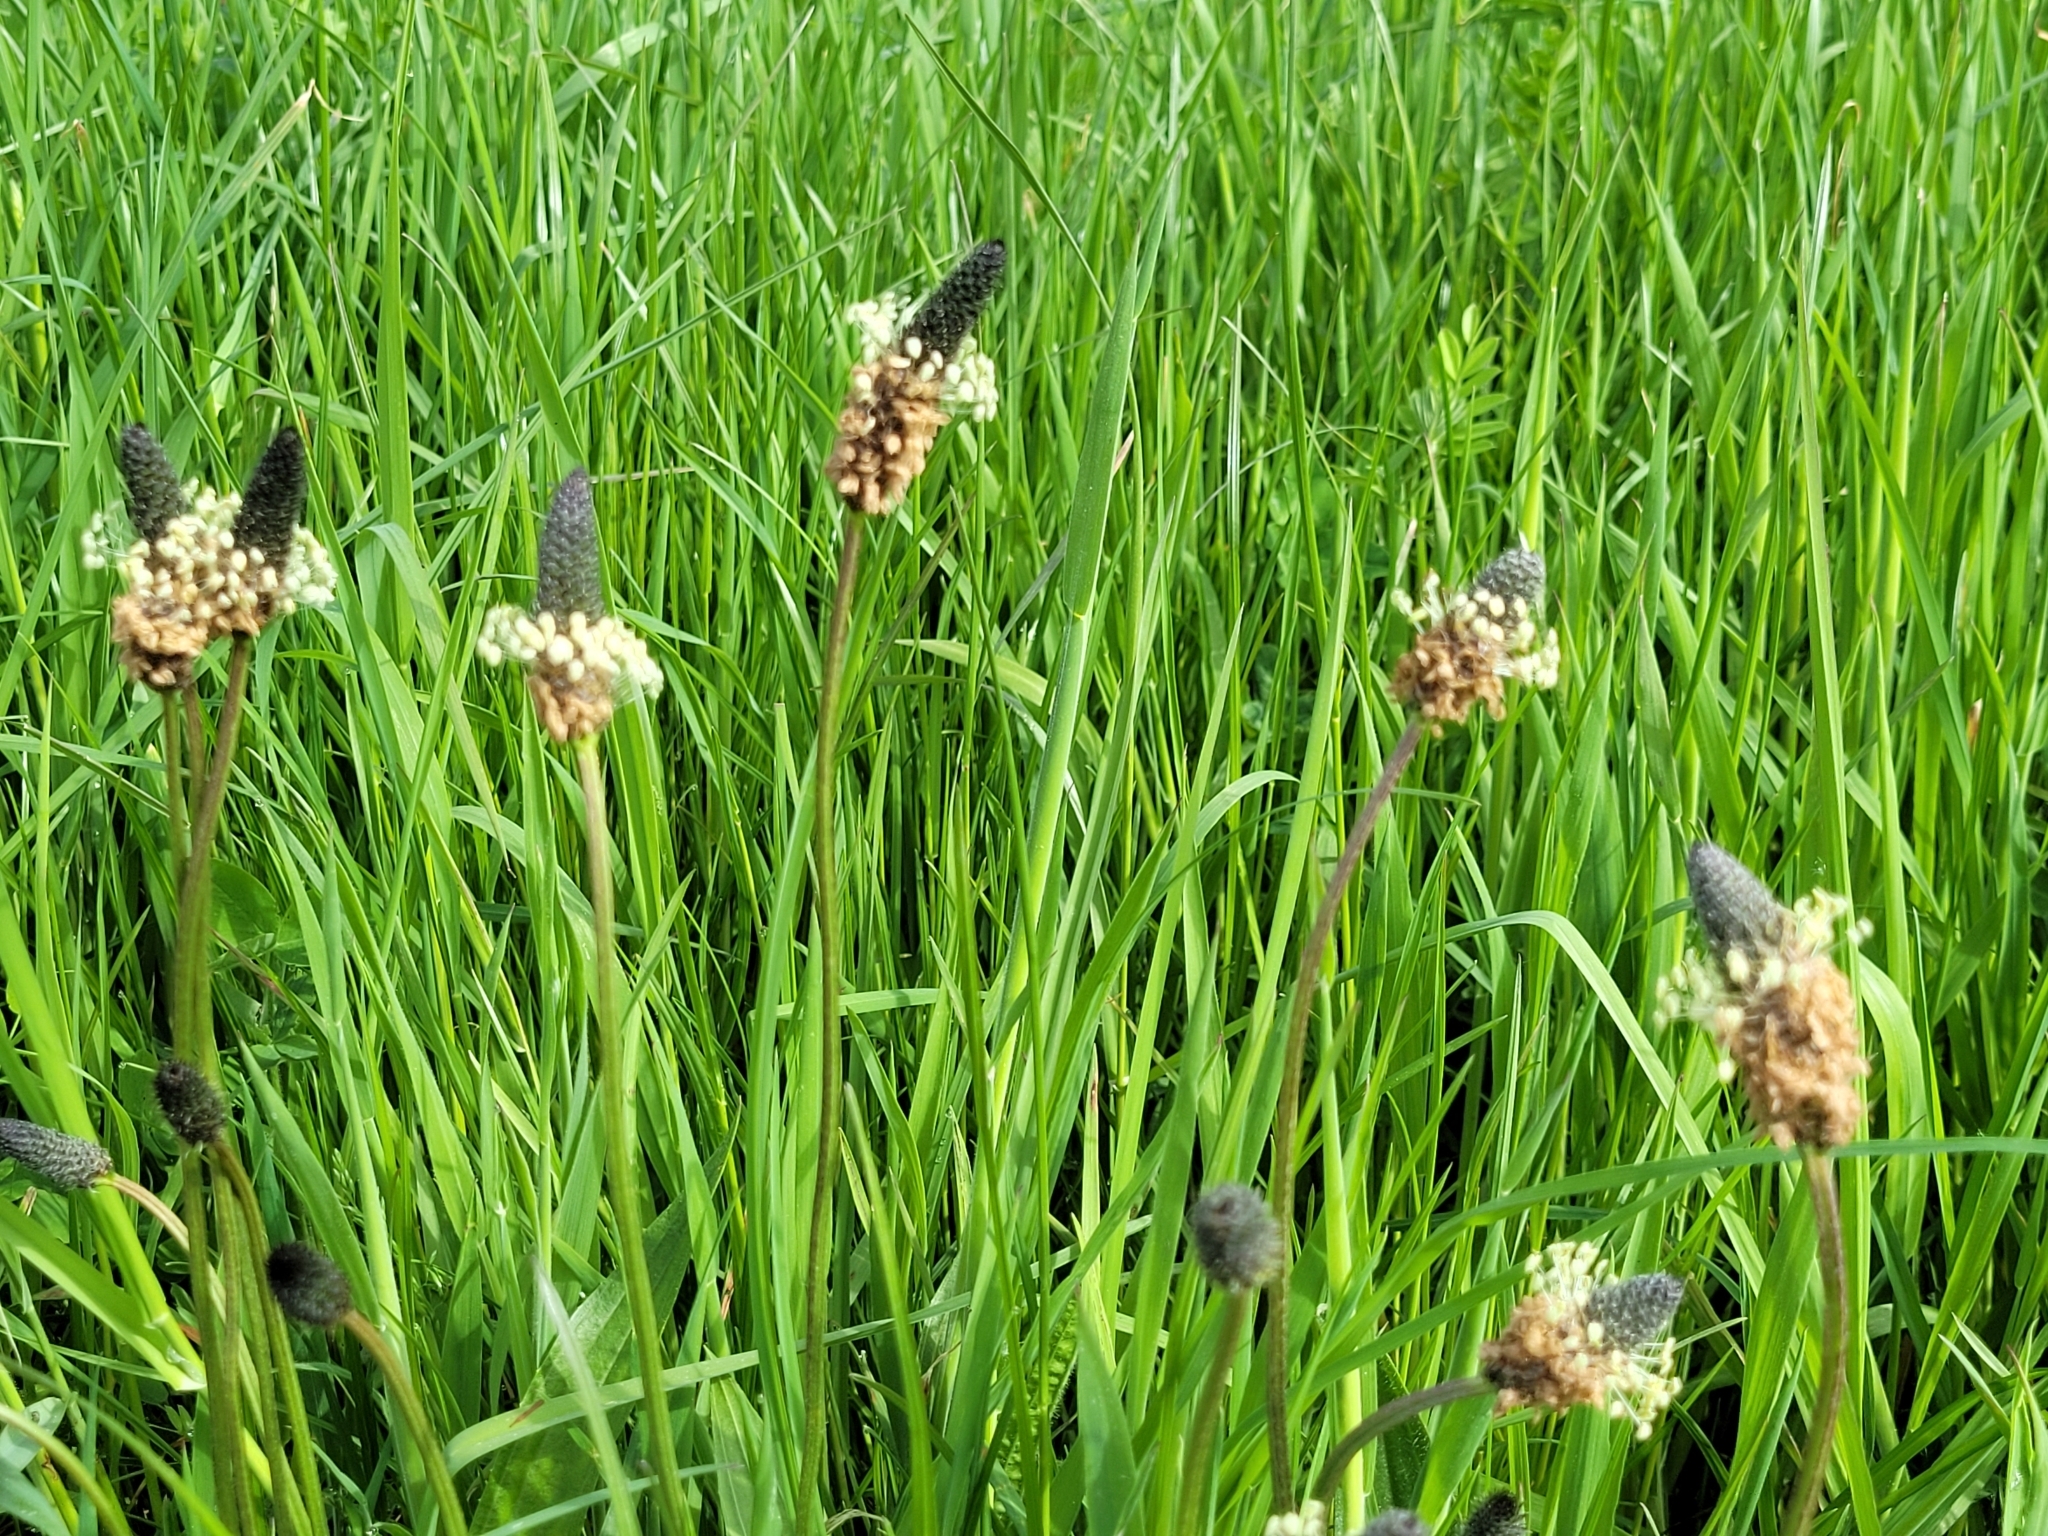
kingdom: Plantae
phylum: Tracheophyta
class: Magnoliopsida
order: Lamiales
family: Plantaginaceae
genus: Plantago
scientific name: Plantago lanceolata
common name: Ribwort plantain
